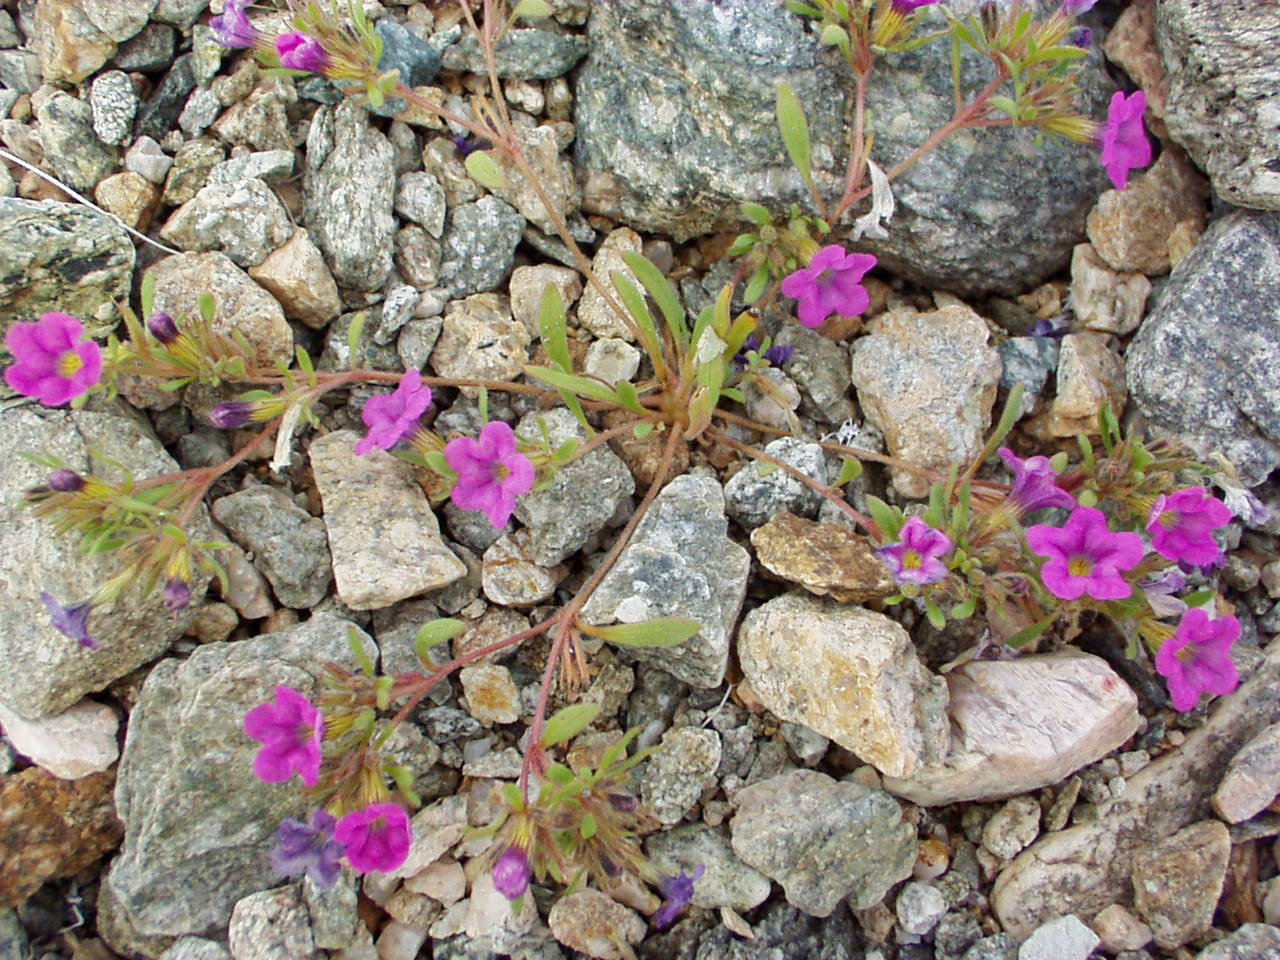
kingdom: Plantae
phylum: Tracheophyta
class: Magnoliopsida
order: Boraginales
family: Namaceae
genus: Nama
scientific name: Nama demissa
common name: Leafy nama
